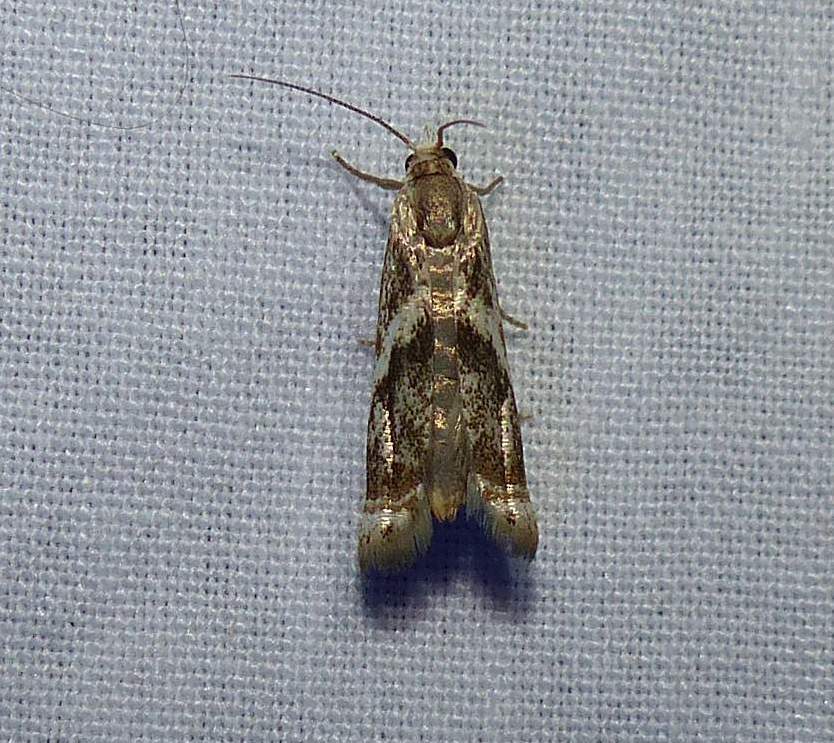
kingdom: Animalia
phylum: Arthropoda
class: Insecta
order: Lepidoptera
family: Crambidae
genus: Microcrambus
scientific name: Microcrambus elegans
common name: Elegant grass-veneer
